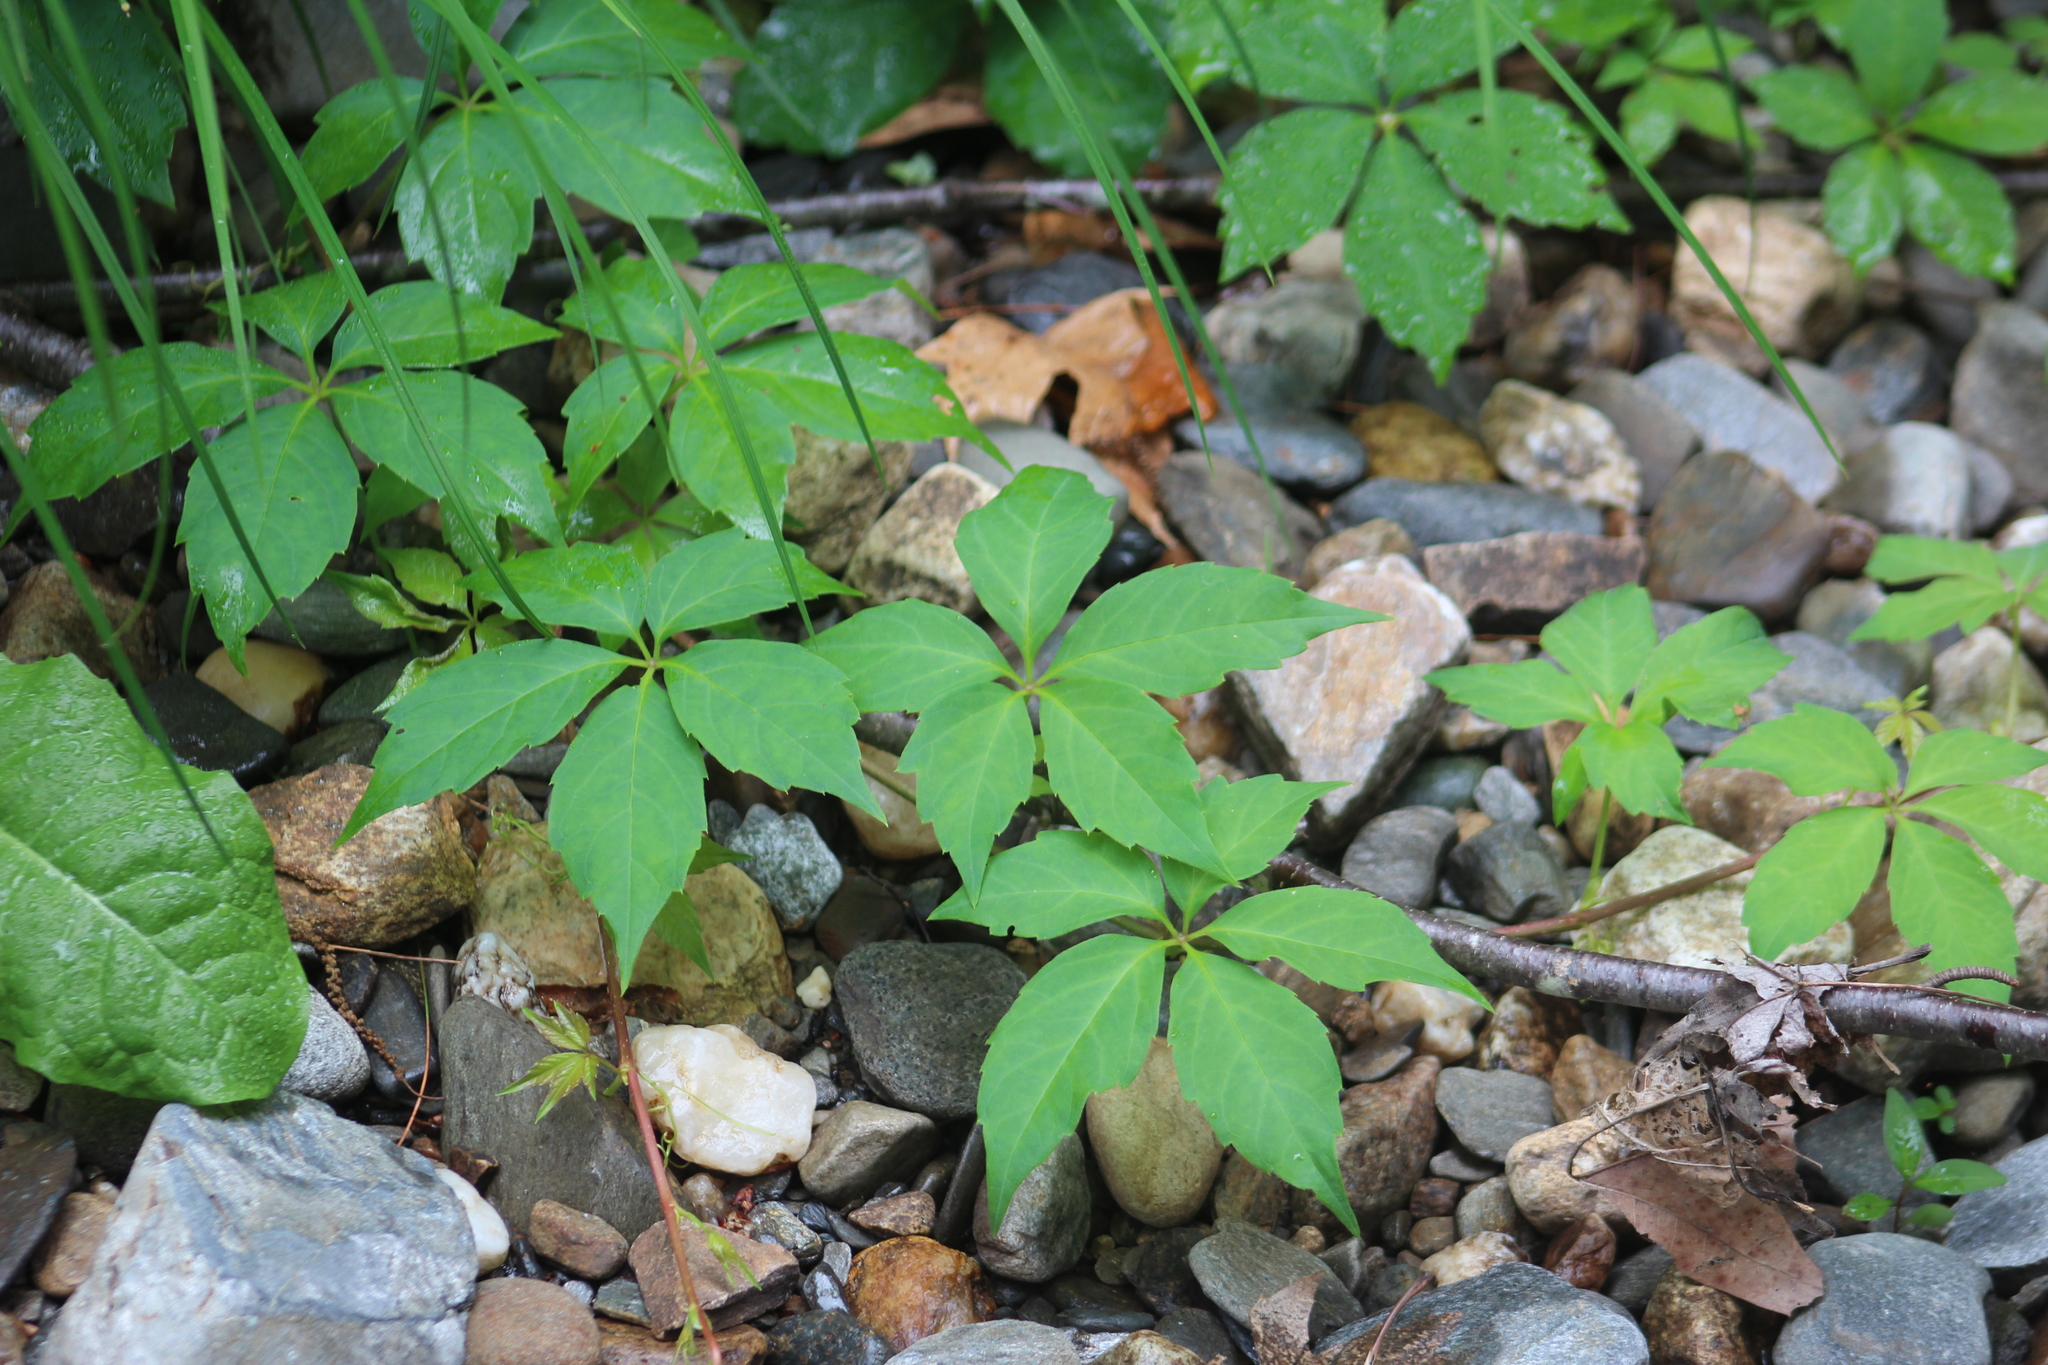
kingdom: Plantae
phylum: Tracheophyta
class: Magnoliopsida
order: Vitales
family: Vitaceae
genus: Parthenocissus
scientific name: Parthenocissus quinquefolia
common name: Virginia-creeper
